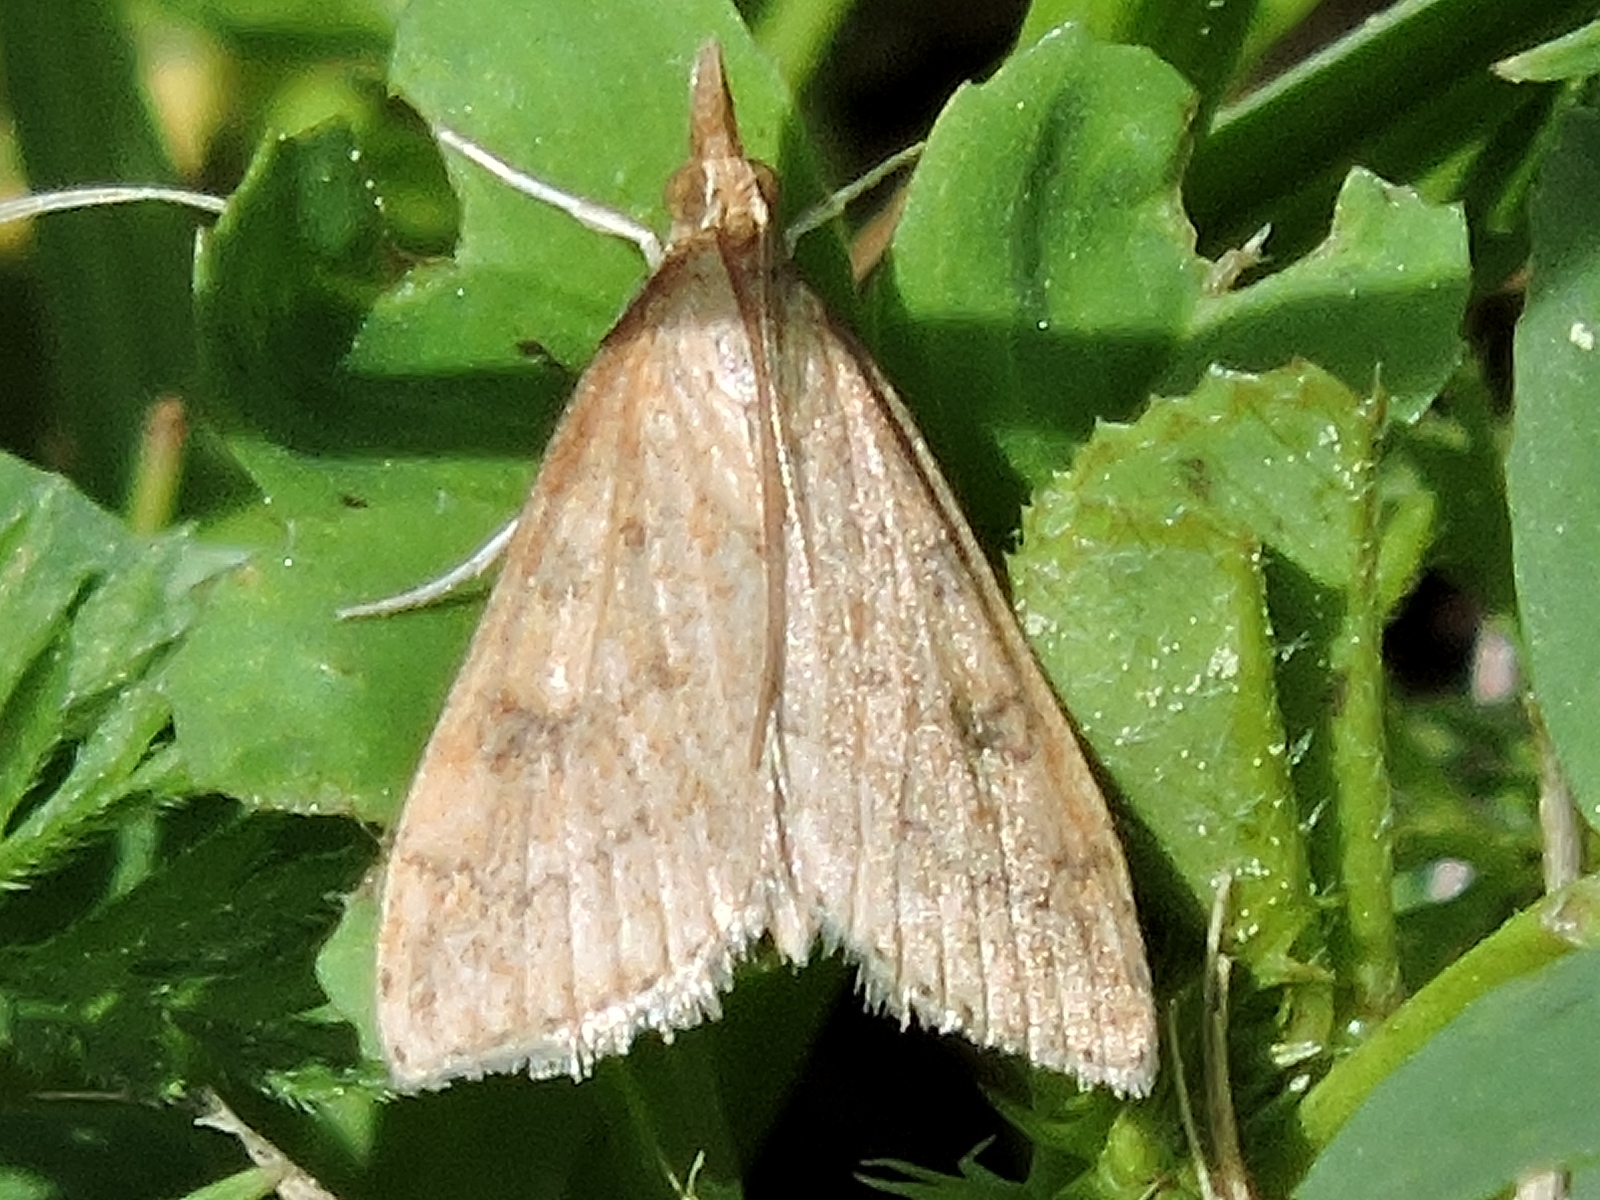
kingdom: Animalia
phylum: Arthropoda
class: Insecta
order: Lepidoptera
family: Crambidae
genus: Udea
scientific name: Udea rubigalis
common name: Celery leaftier moth
